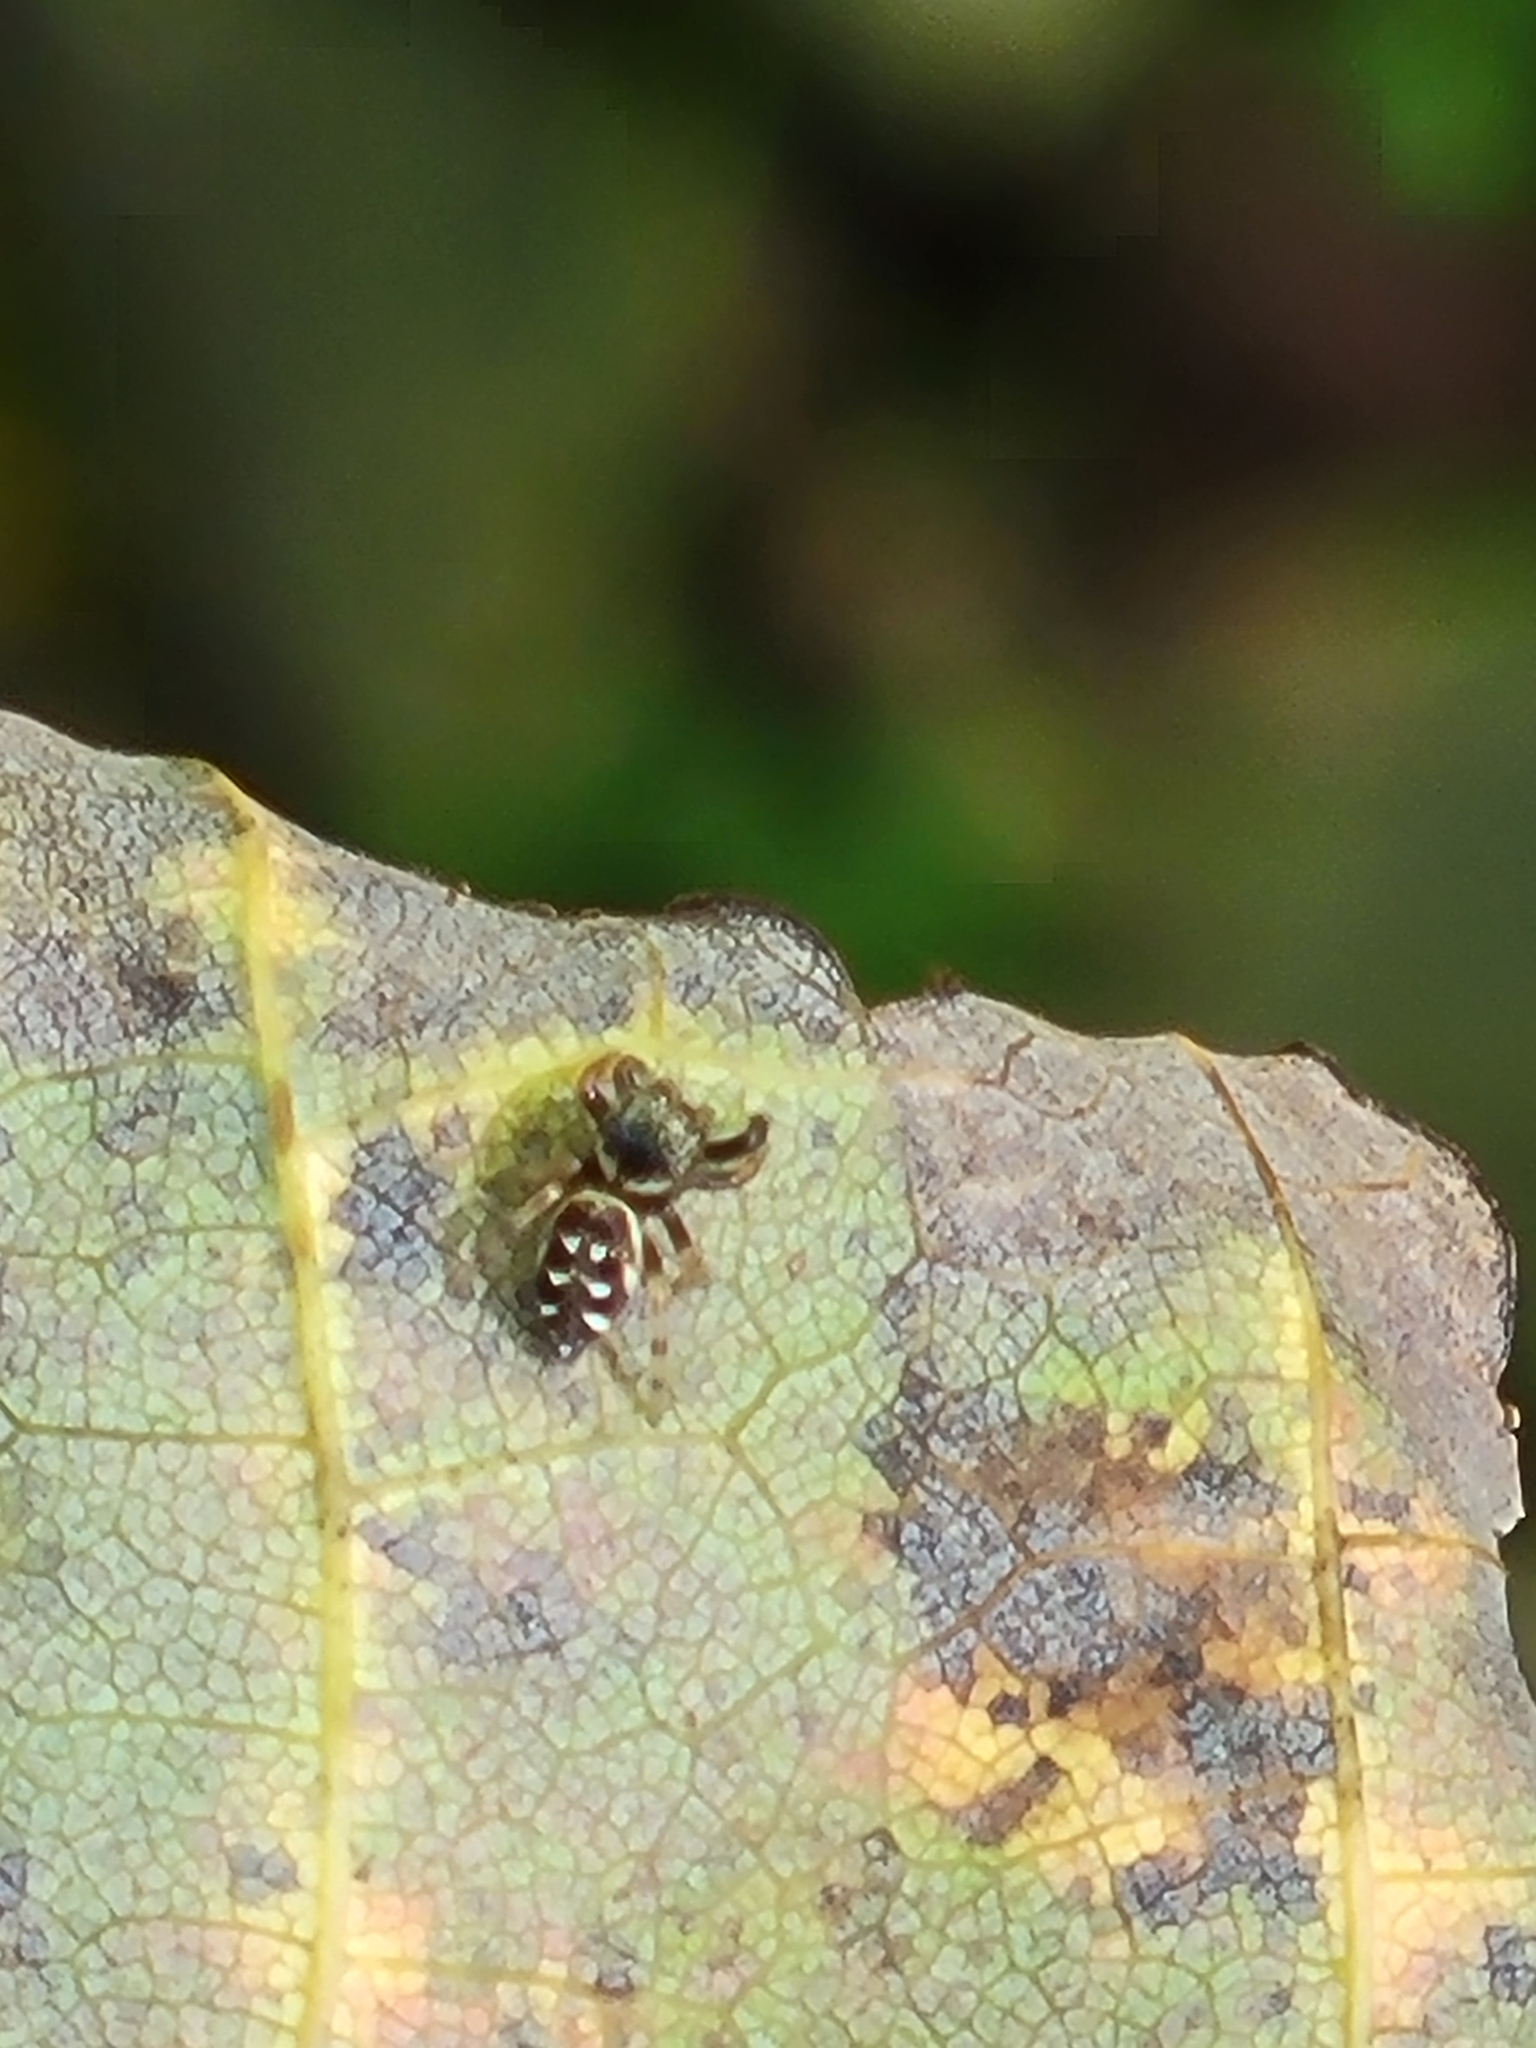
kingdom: Animalia
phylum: Arthropoda
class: Arachnida
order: Araneae
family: Salticidae
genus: Paraphidippus
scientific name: Paraphidippus aurantius
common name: Jumping spiders
